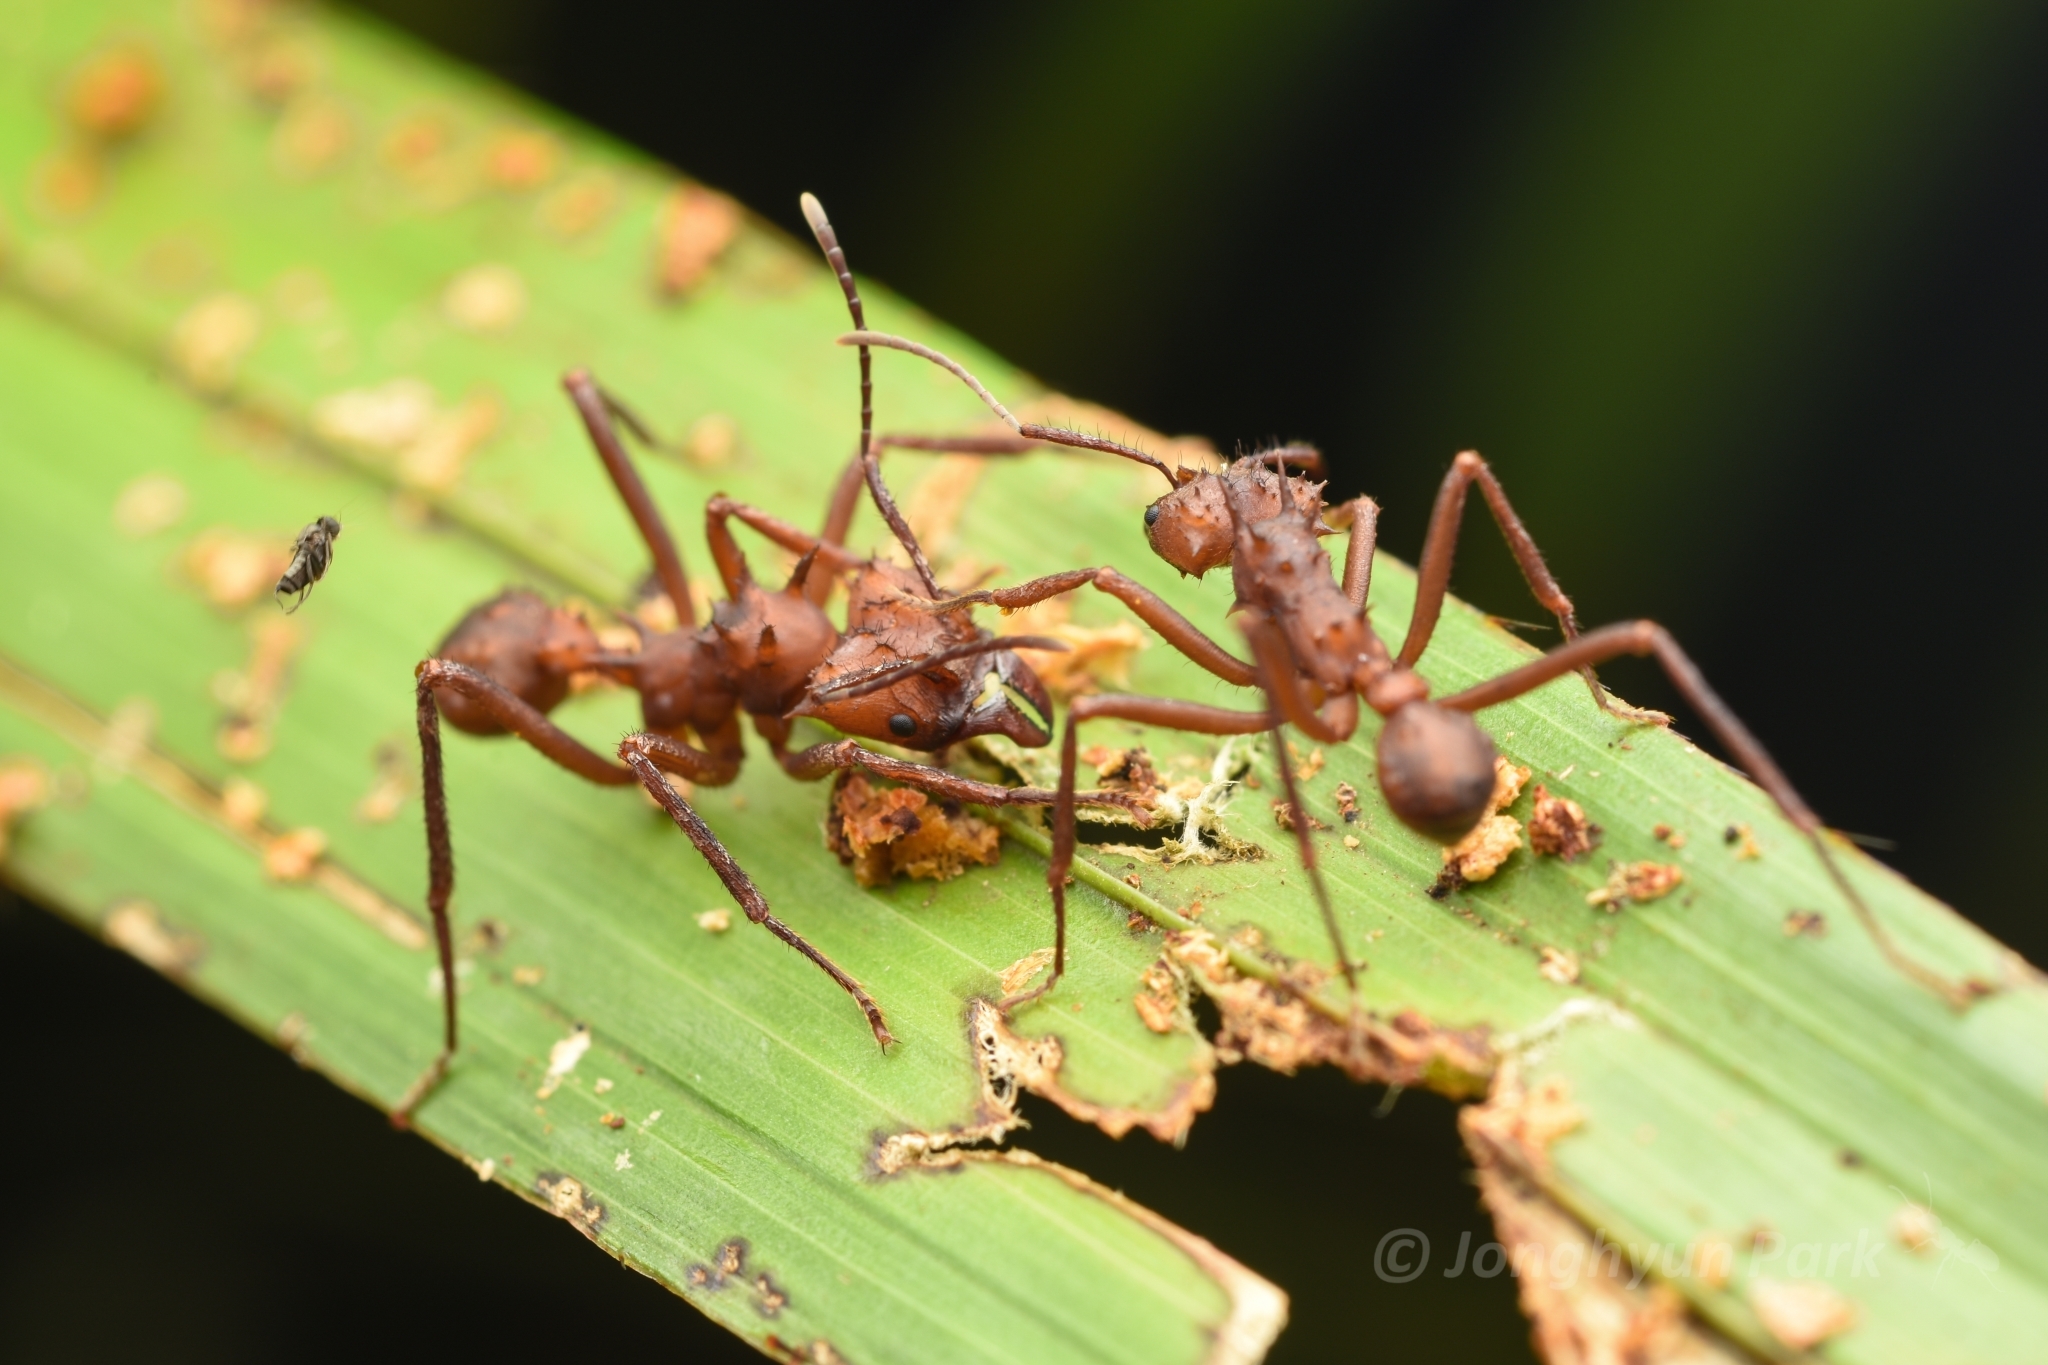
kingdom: Animalia
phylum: Arthropoda
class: Insecta
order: Hymenoptera
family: Formicidae
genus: Acromyrmex
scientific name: Acromyrmex octospinosus
